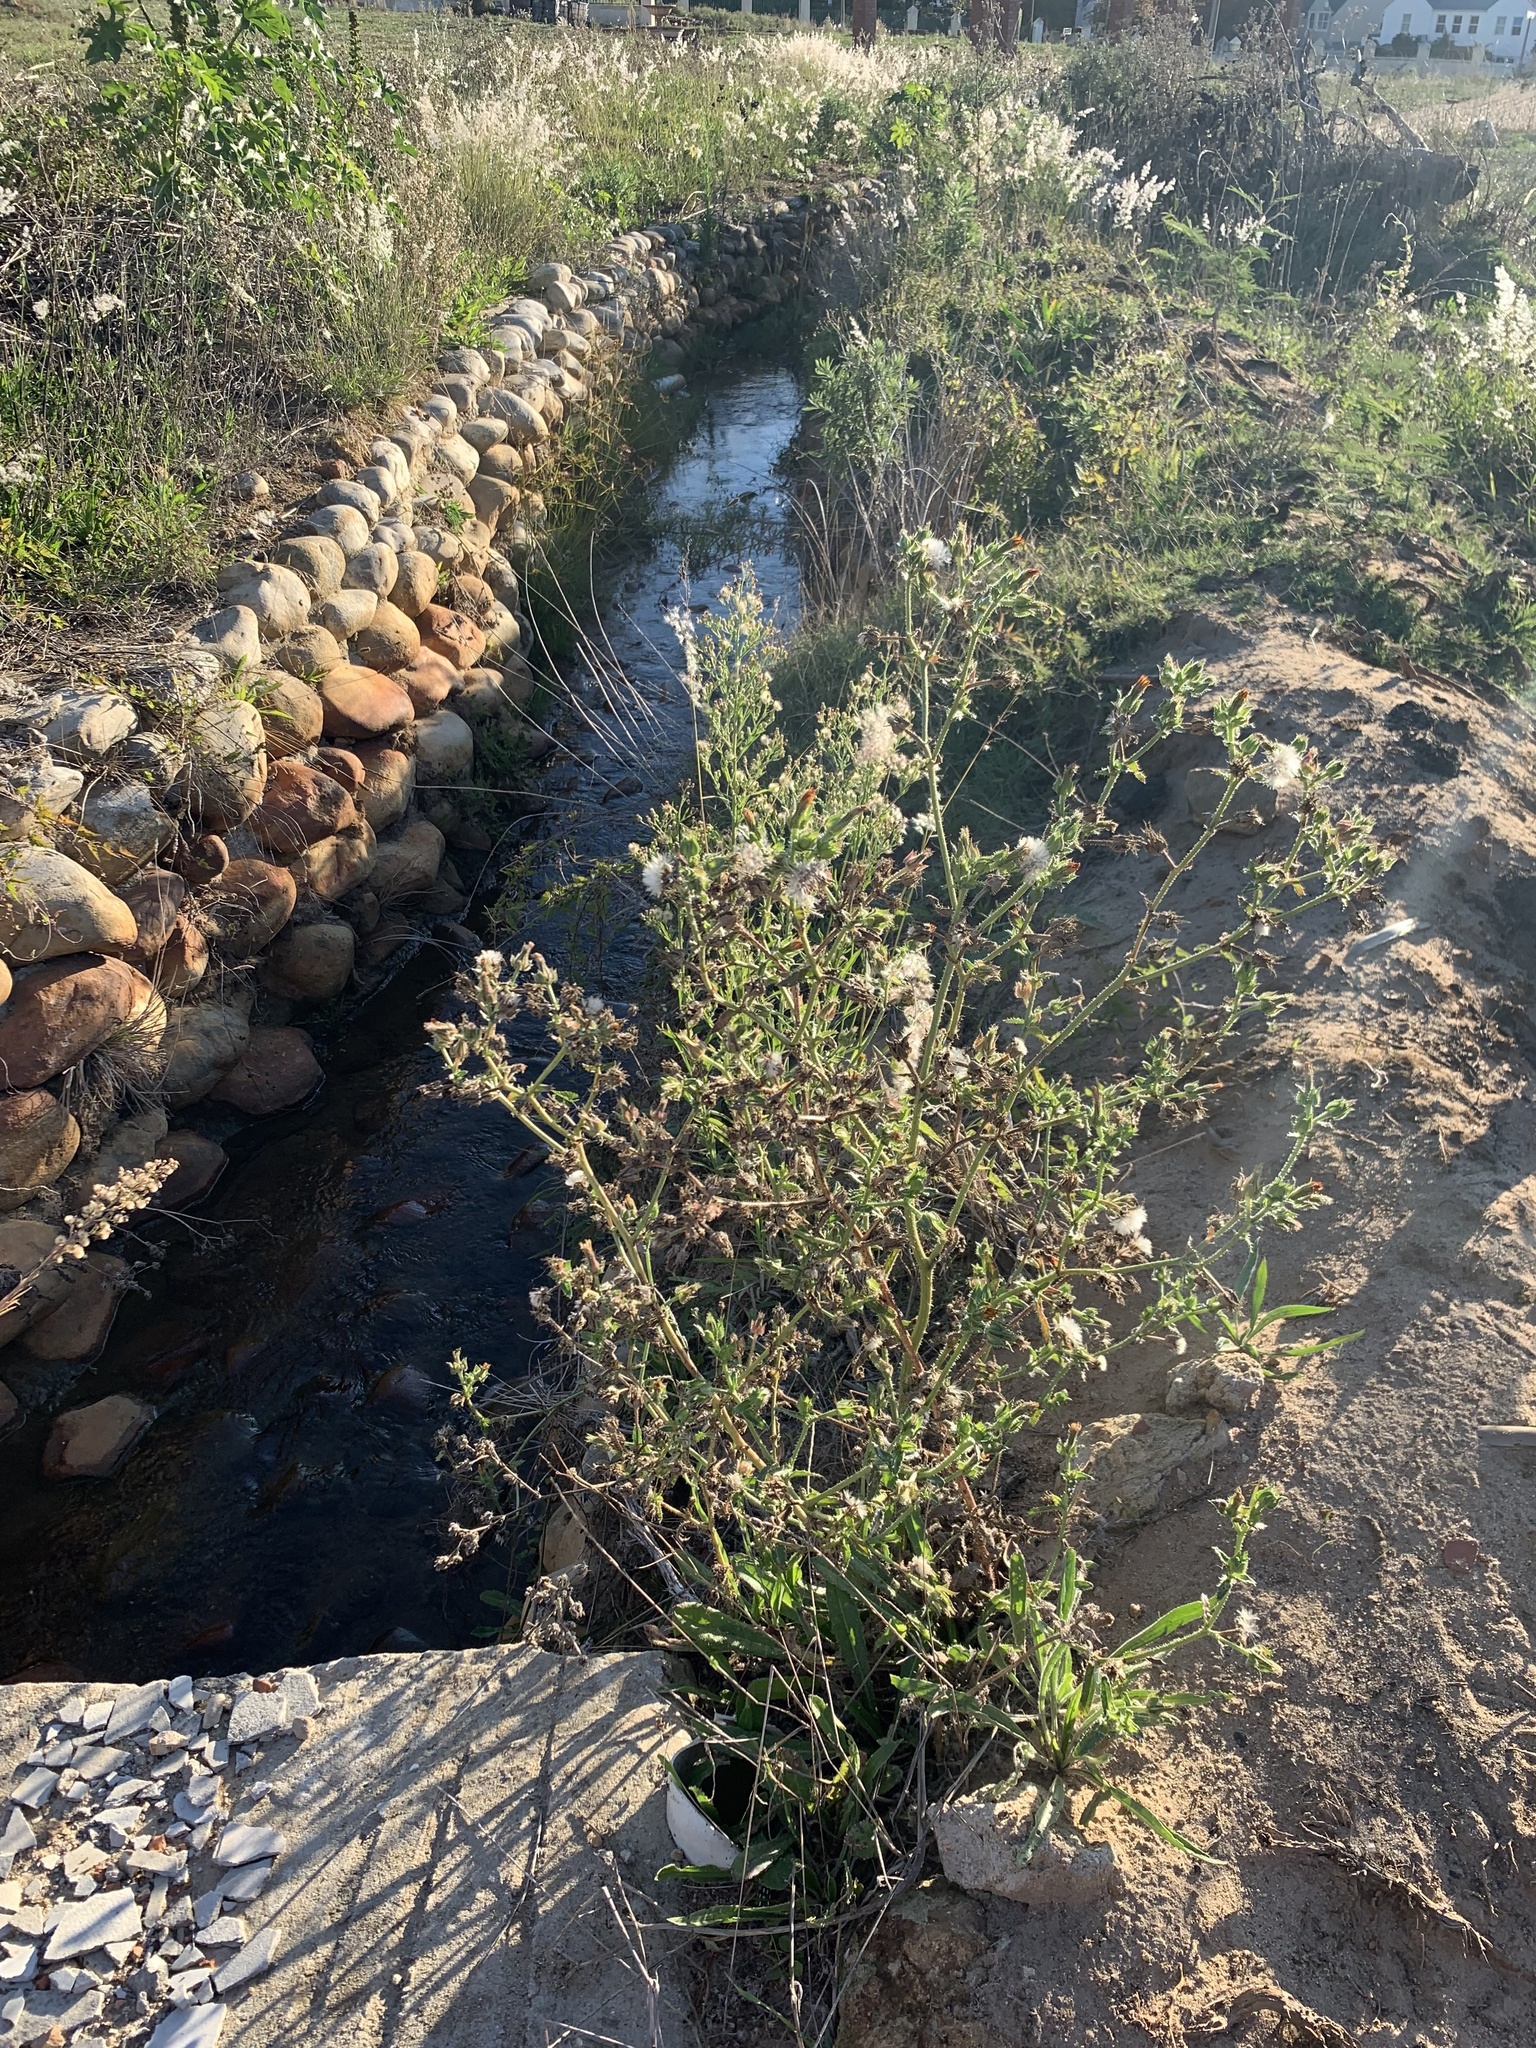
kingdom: Plantae
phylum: Tracheophyta
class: Magnoliopsida
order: Asterales
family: Asteraceae
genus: Helminthotheca
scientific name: Helminthotheca echioides
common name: Ox-tongue
